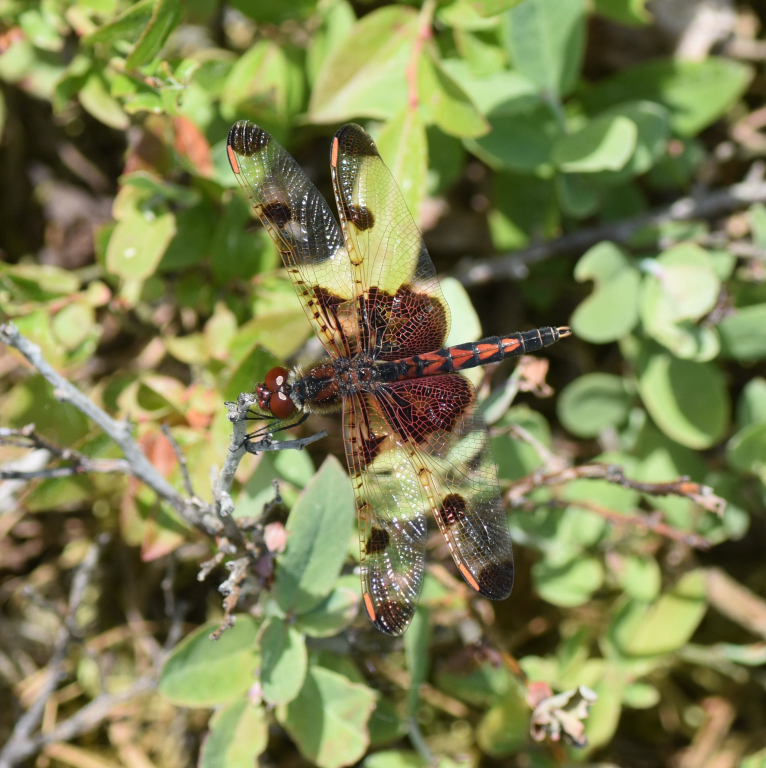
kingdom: Animalia
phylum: Arthropoda
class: Insecta
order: Odonata
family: Libellulidae
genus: Celithemis
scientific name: Celithemis elisa
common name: Calico pennant
